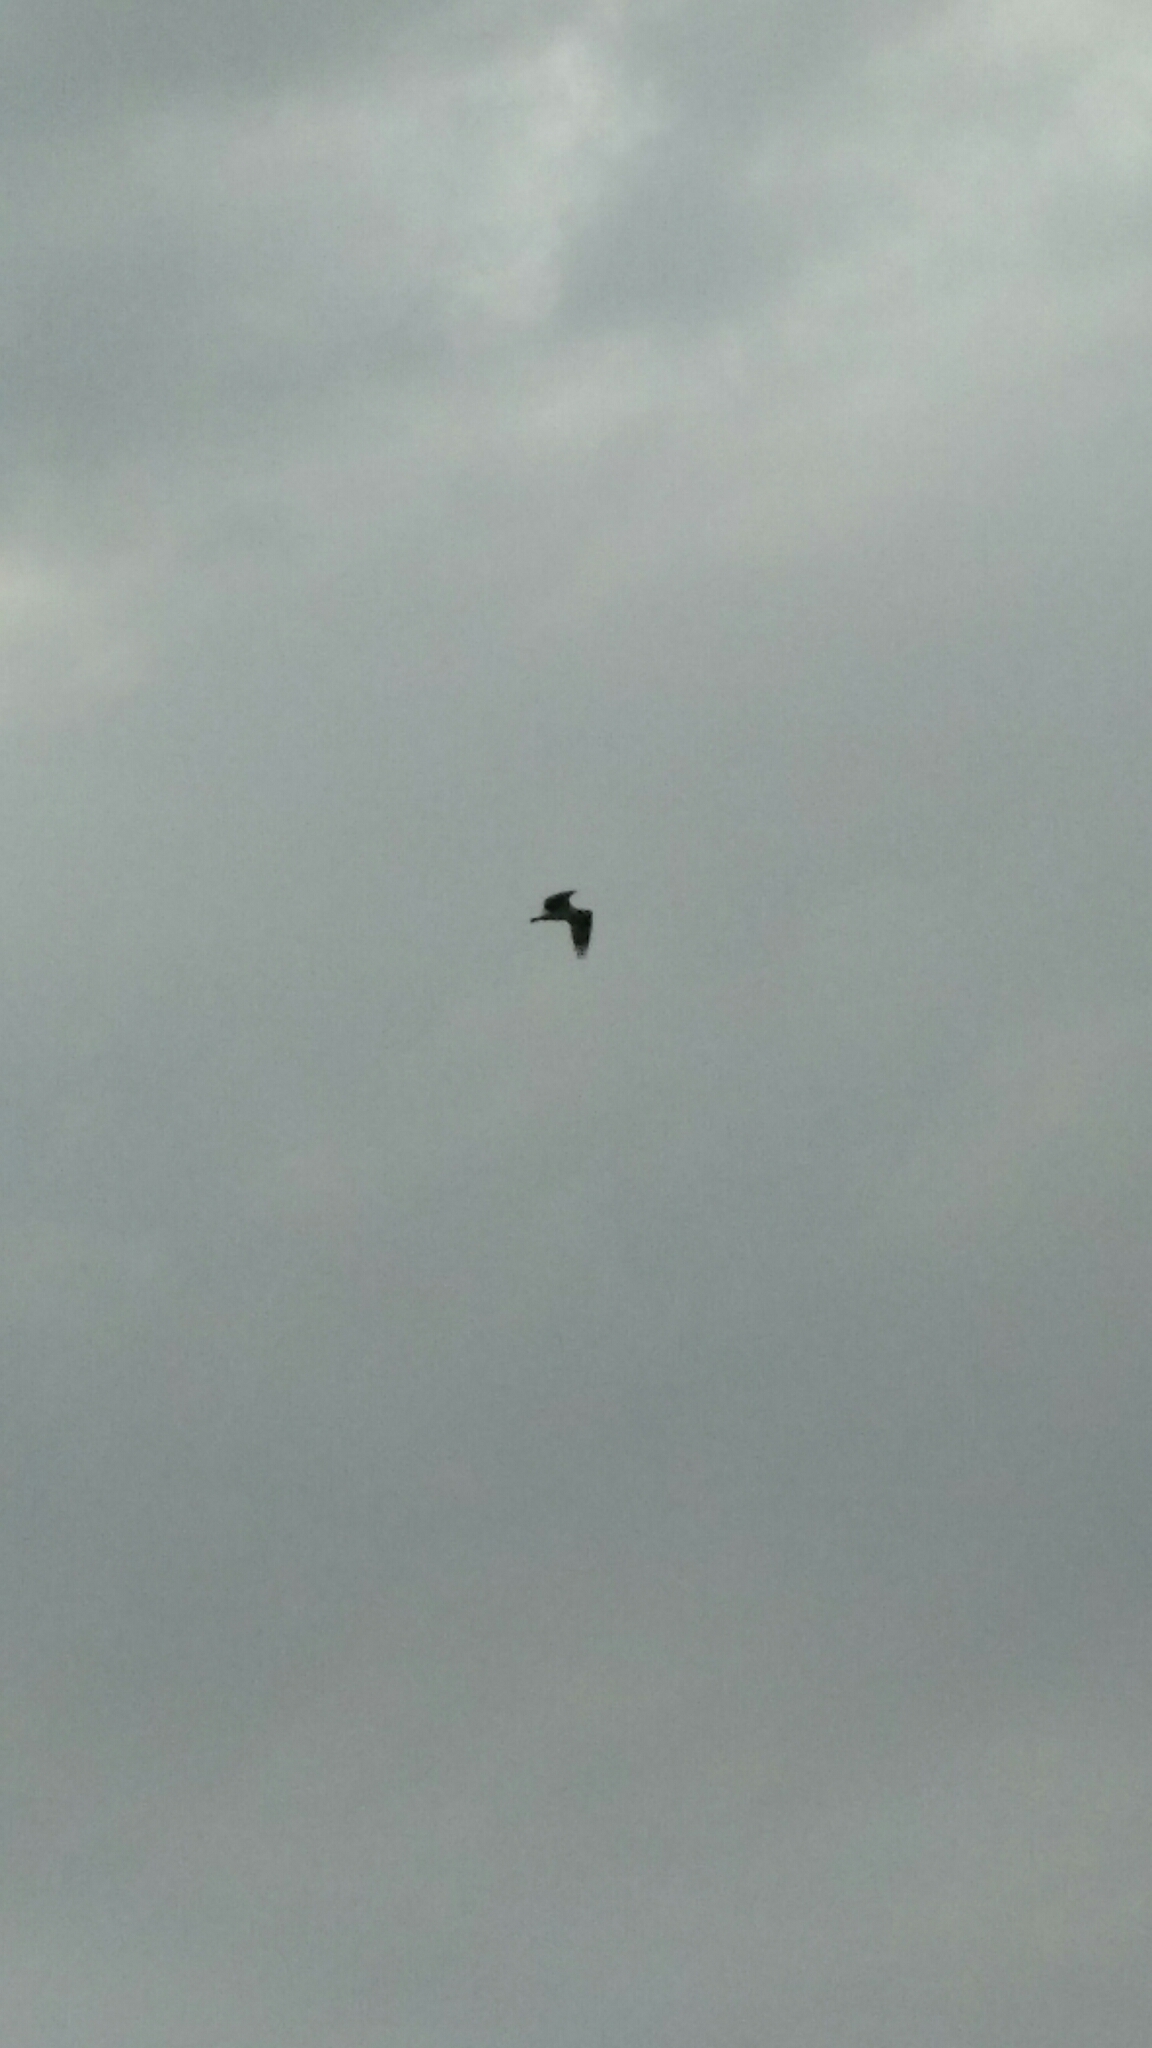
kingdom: Animalia
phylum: Chordata
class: Aves
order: Accipitriformes
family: Pandionidae
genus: Pandion
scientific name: Pandion haliaetus
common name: Osprey
